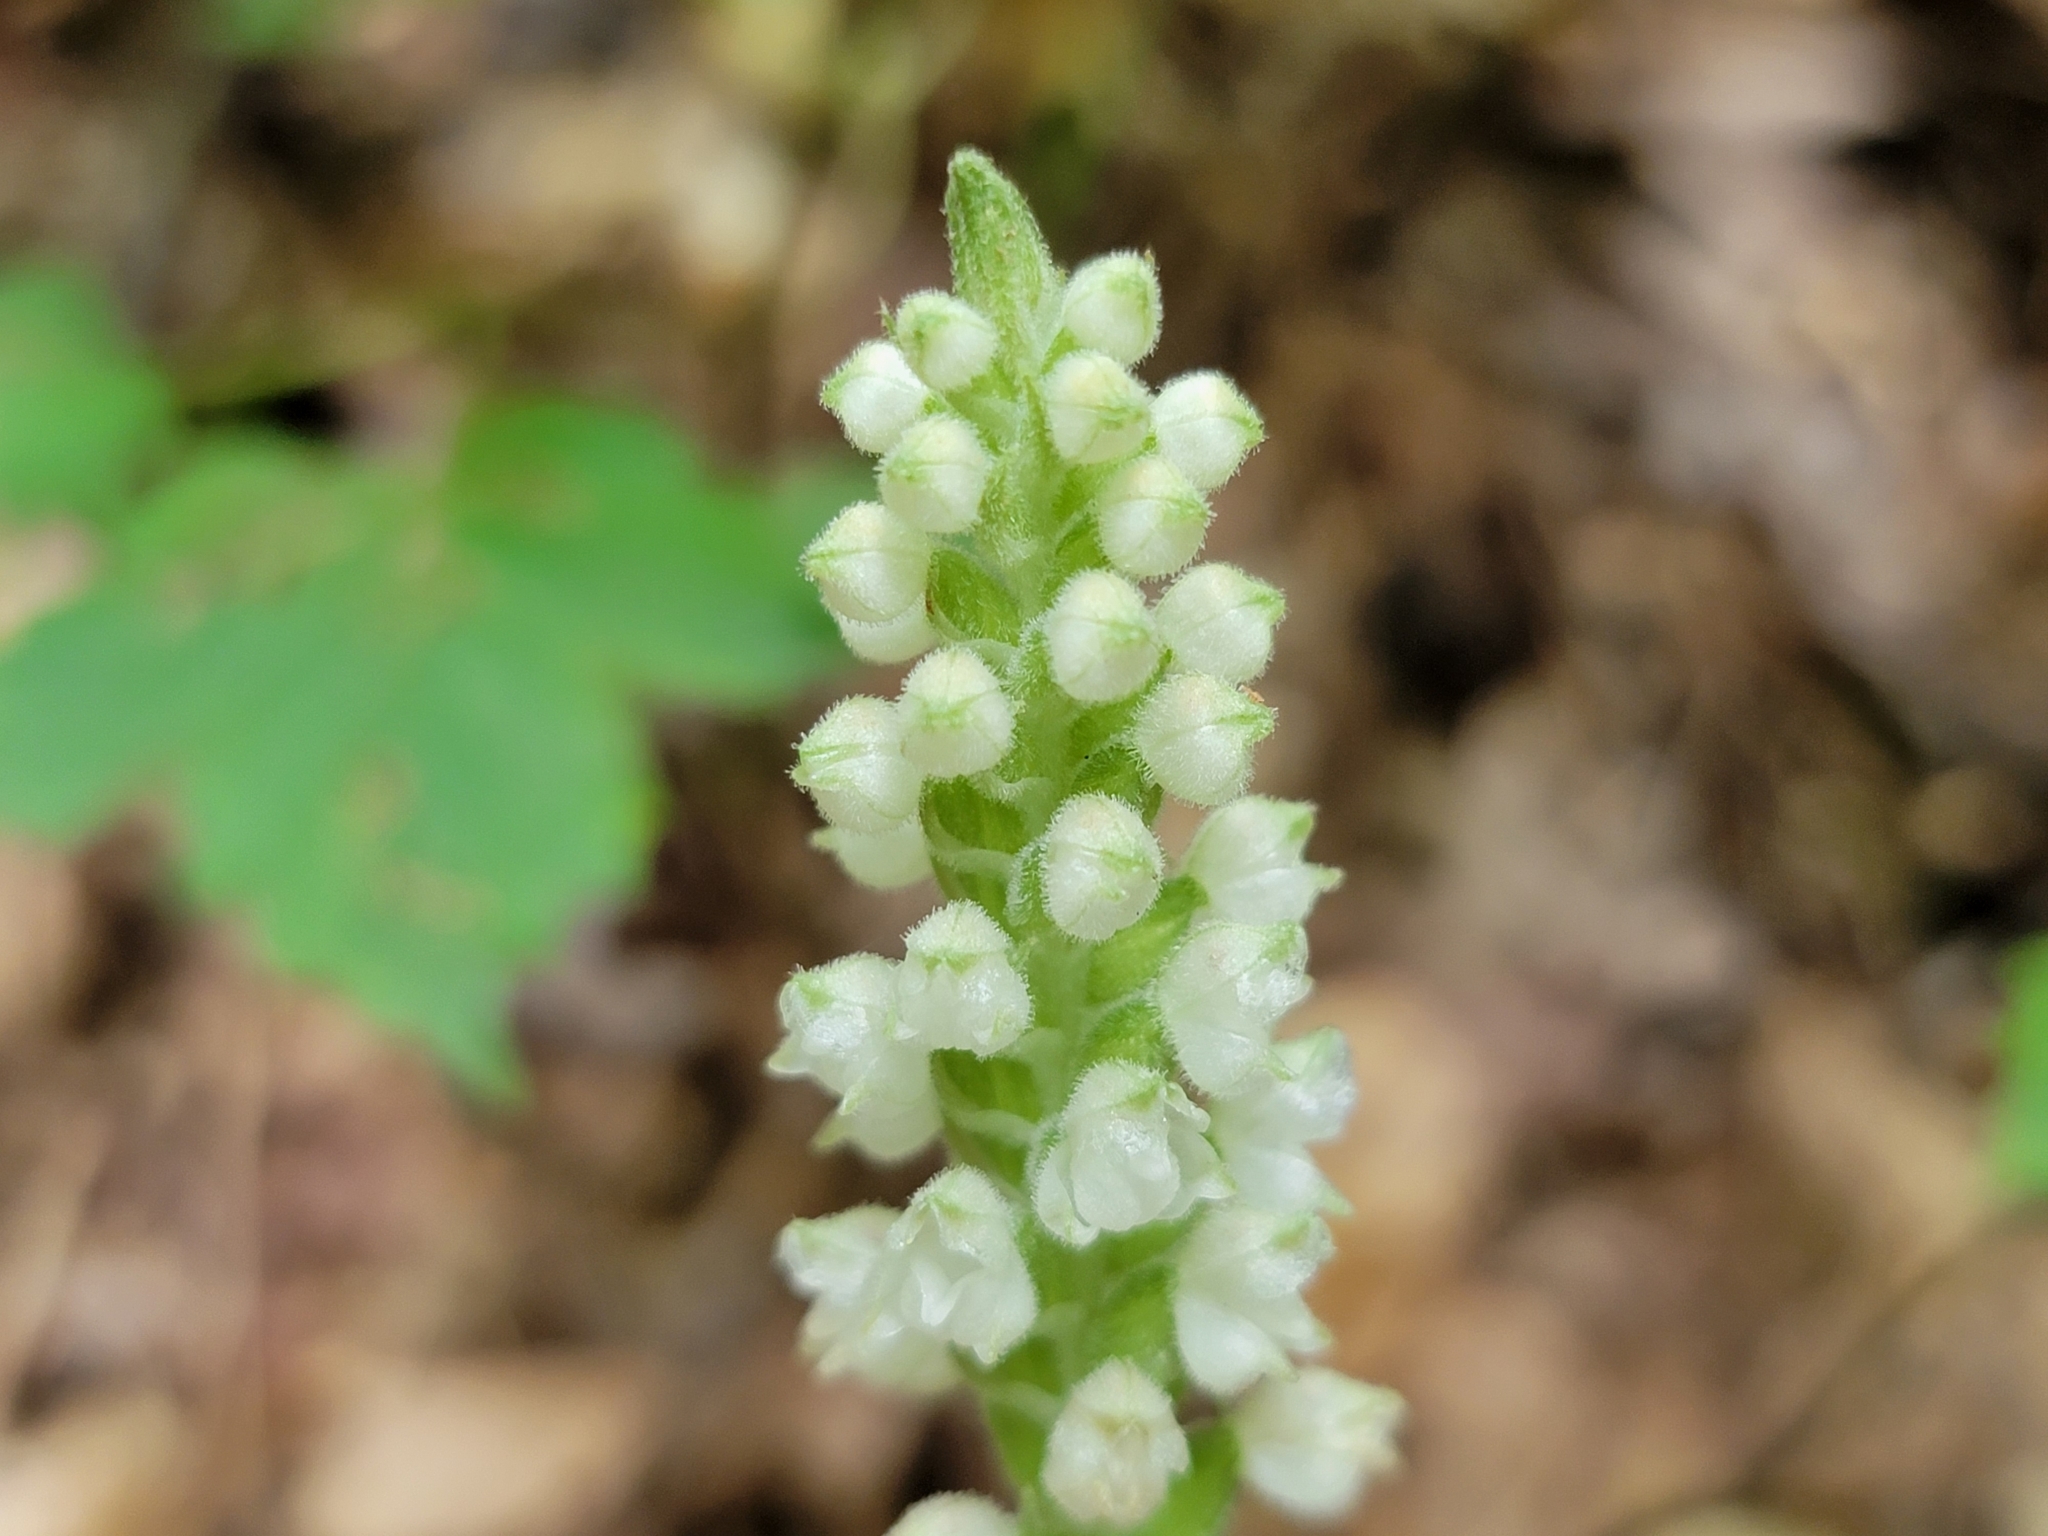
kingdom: Plantae
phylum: Tracheophyta
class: Liliopsida
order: Asparagales
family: Orchidaceae
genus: Goodyera
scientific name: Goodyera pubescens
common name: Downy rattlesnake-plantain
